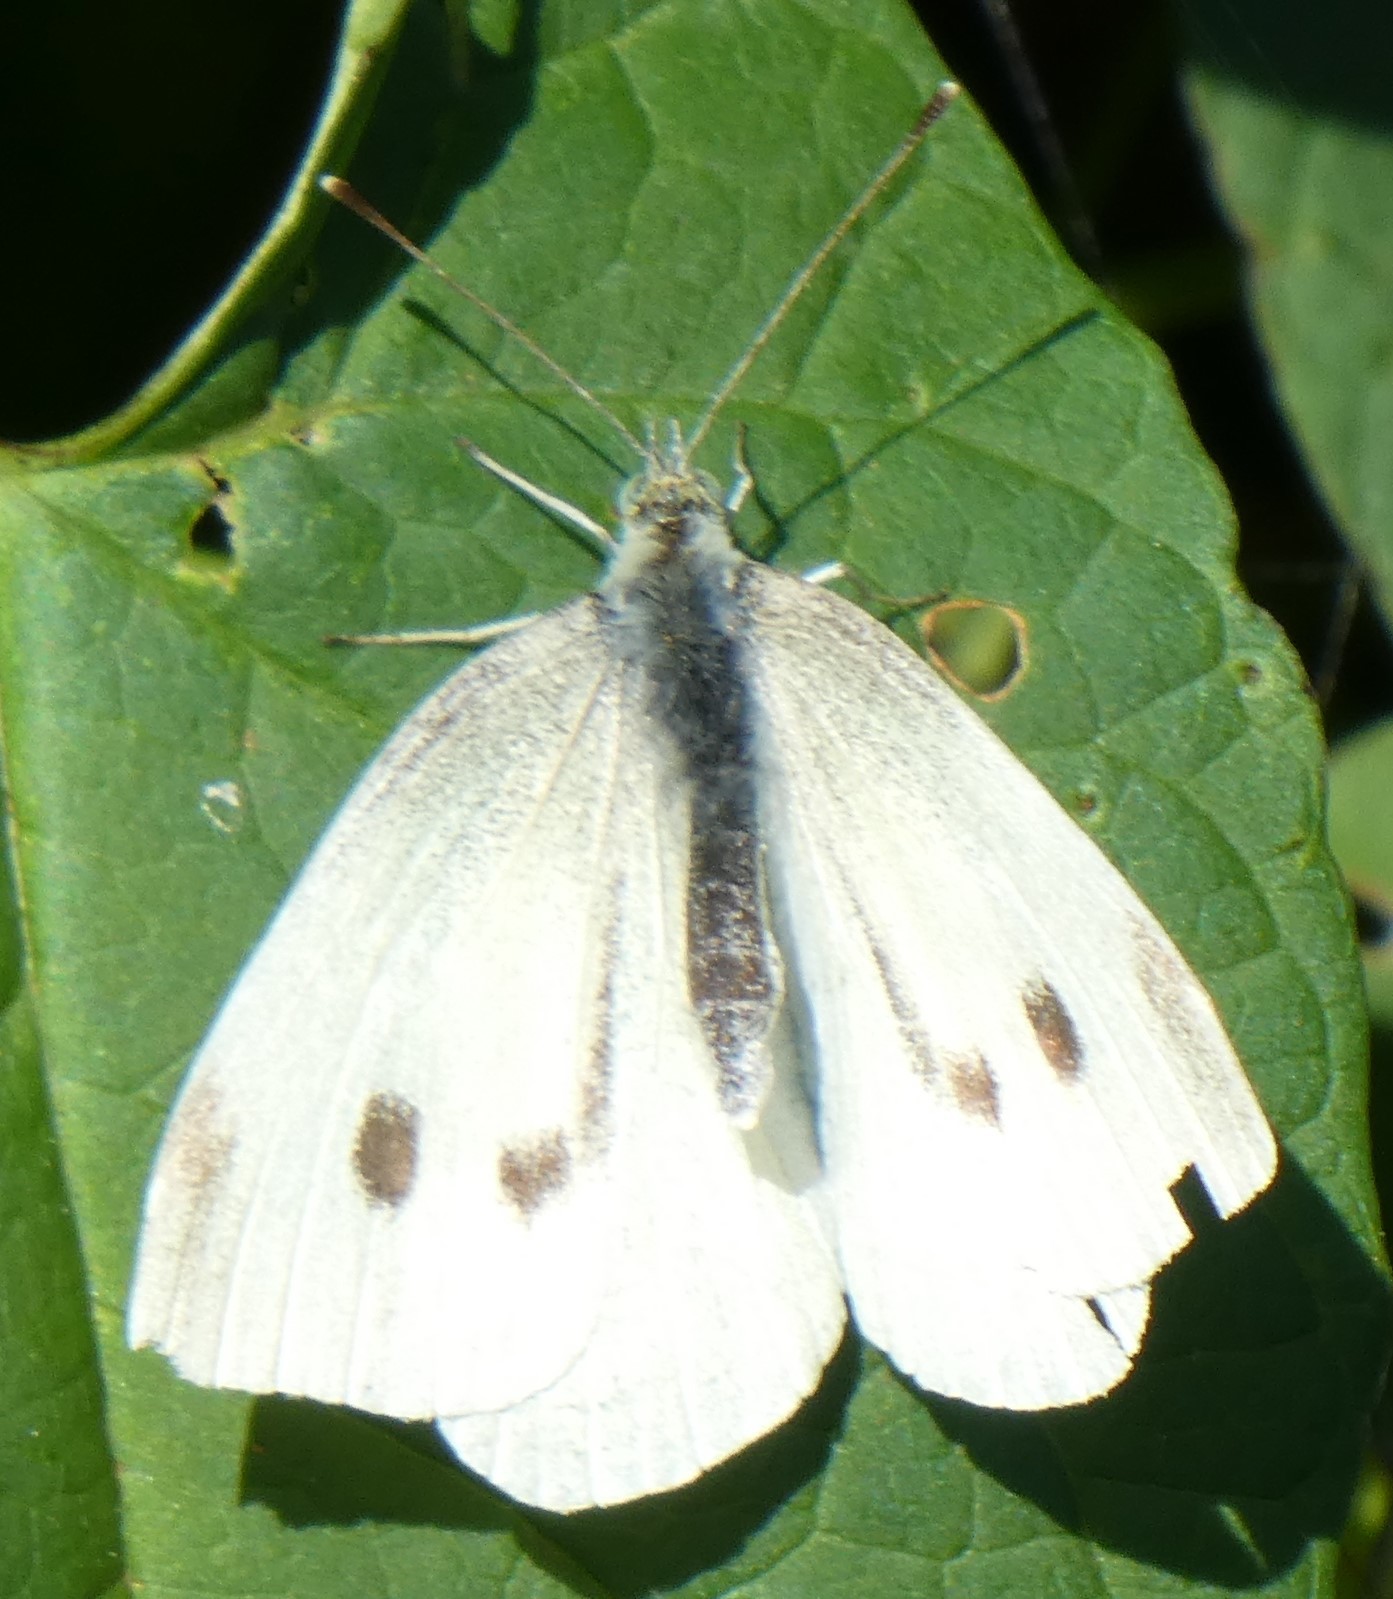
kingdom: Animalia
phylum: Arthropoda
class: Insecta
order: Lepidoptera
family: Pieridae
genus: Pieris
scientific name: Pieris rapae
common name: Small white
